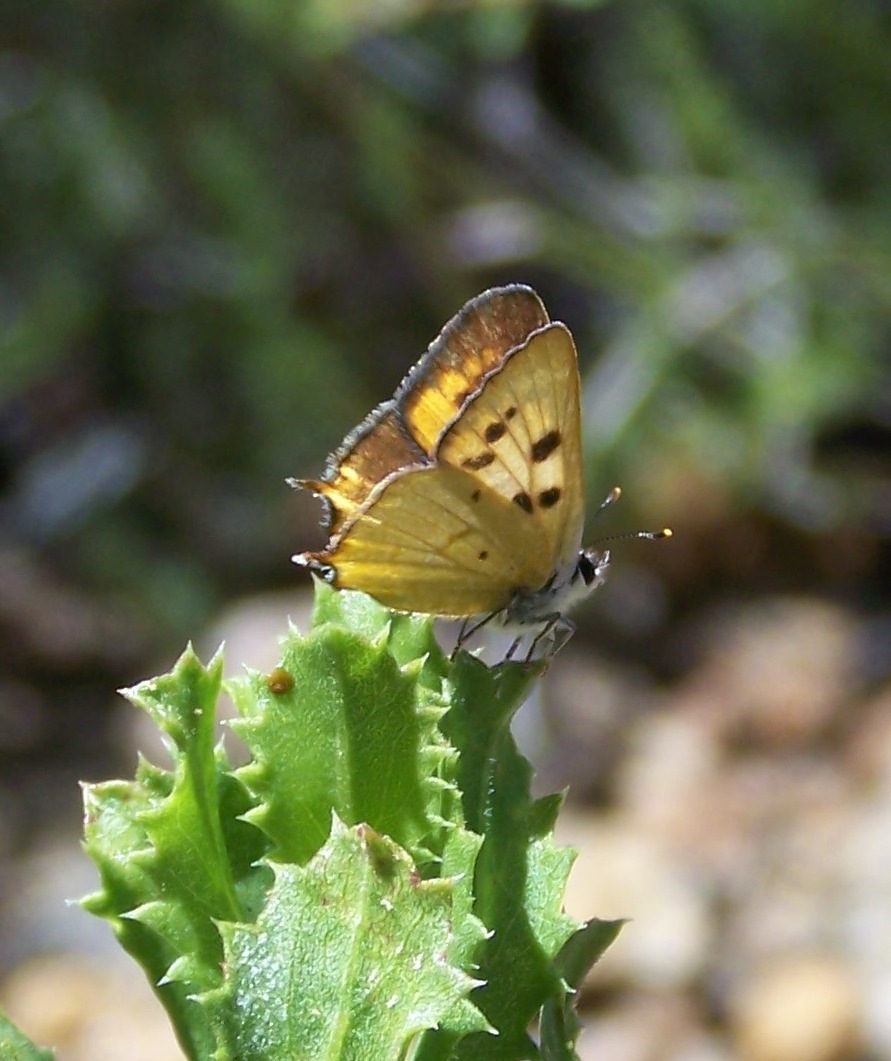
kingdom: Animalia
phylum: Arthropoda
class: Insecta
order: Lepidoptera
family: Lycaenidae
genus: Tharsalea
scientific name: Tharsalea
